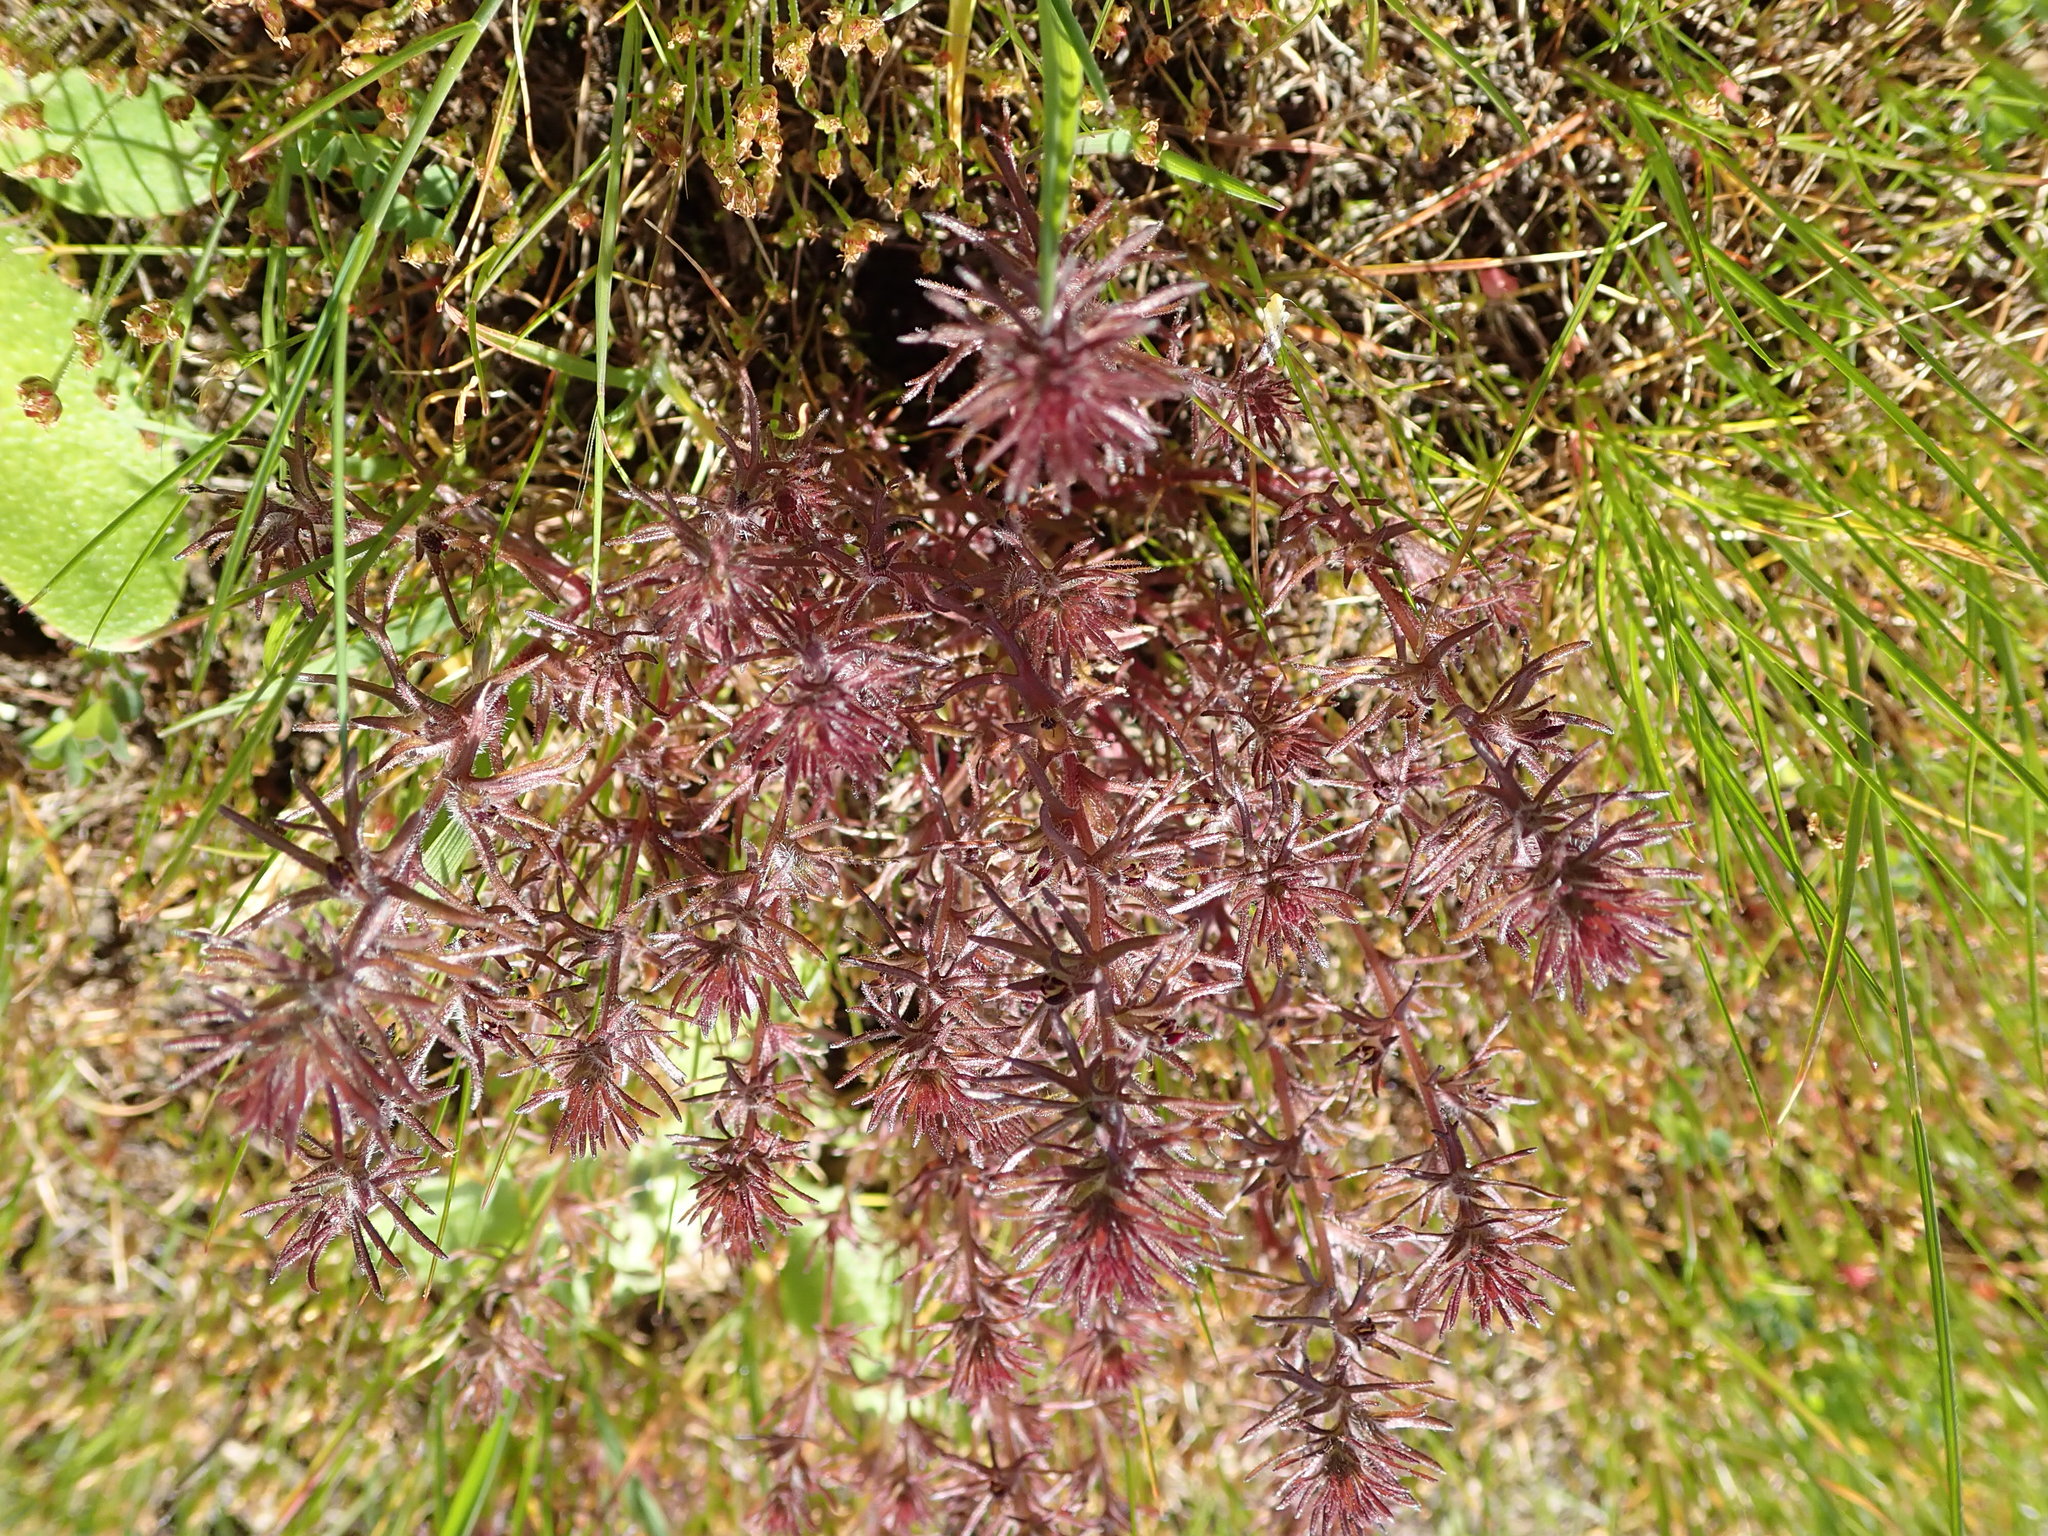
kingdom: Plantae
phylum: Tracheophyta
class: Magnoliopsida
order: Lamiales
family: Orobanchaceae
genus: Triphysaria
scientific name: Triphysaria pusilla
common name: Dwarf false owl-clover
